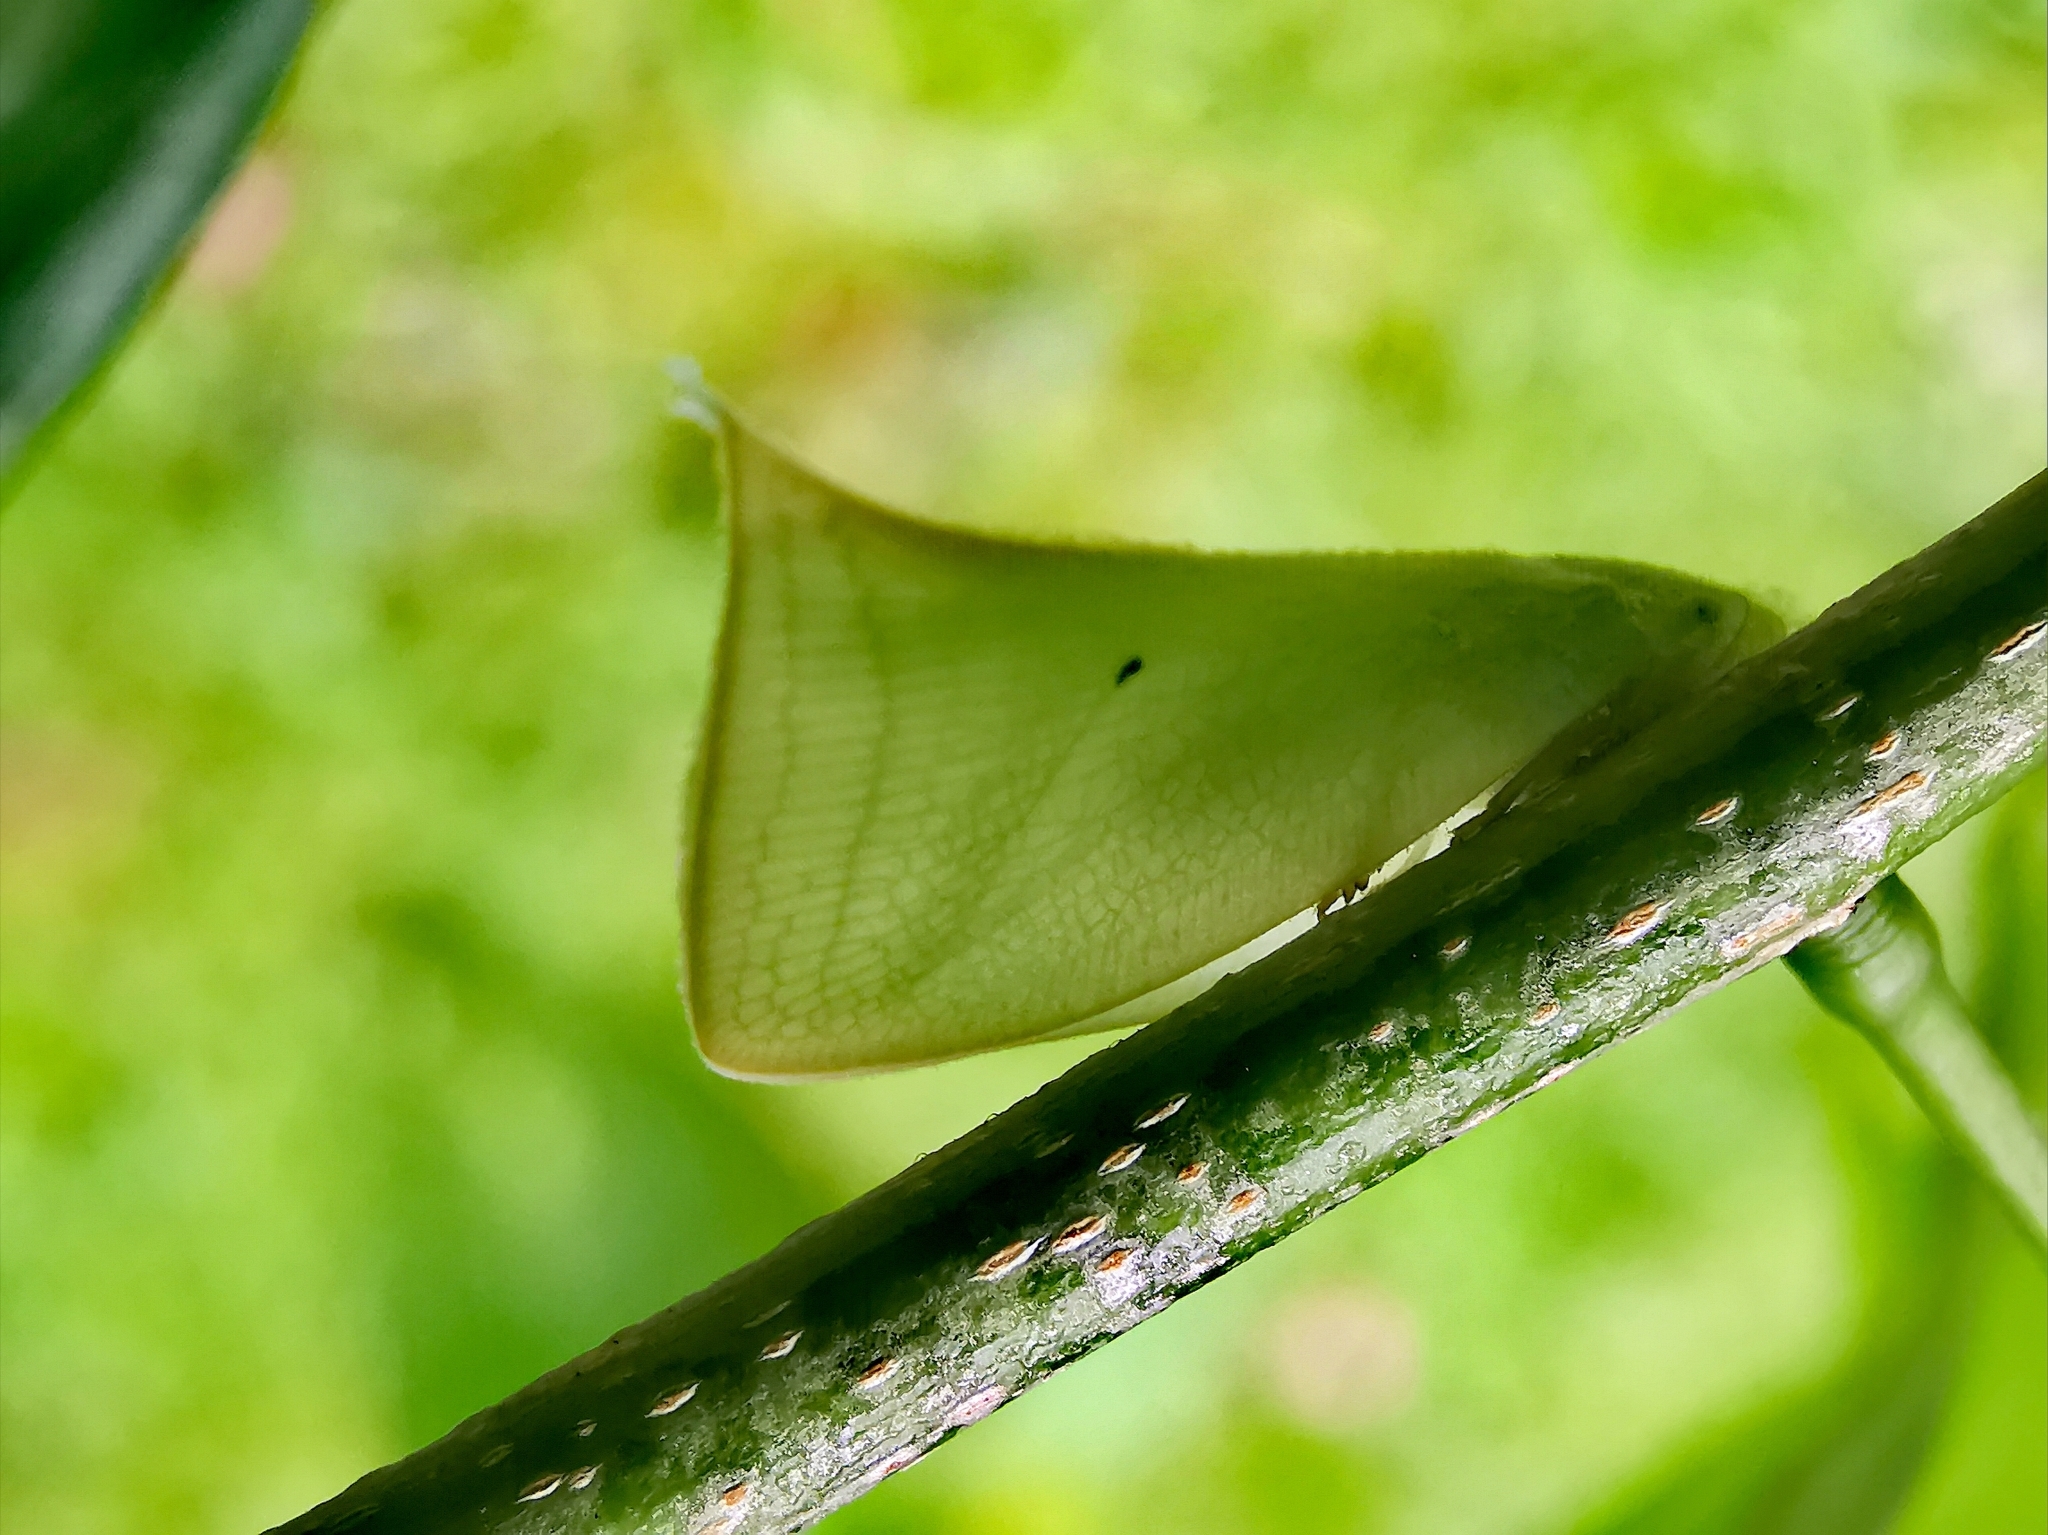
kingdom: Animalia
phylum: Arthropoda
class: Insecta
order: Hemiptera
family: Flatidae
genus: Lawana
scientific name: Lawana adscendens
